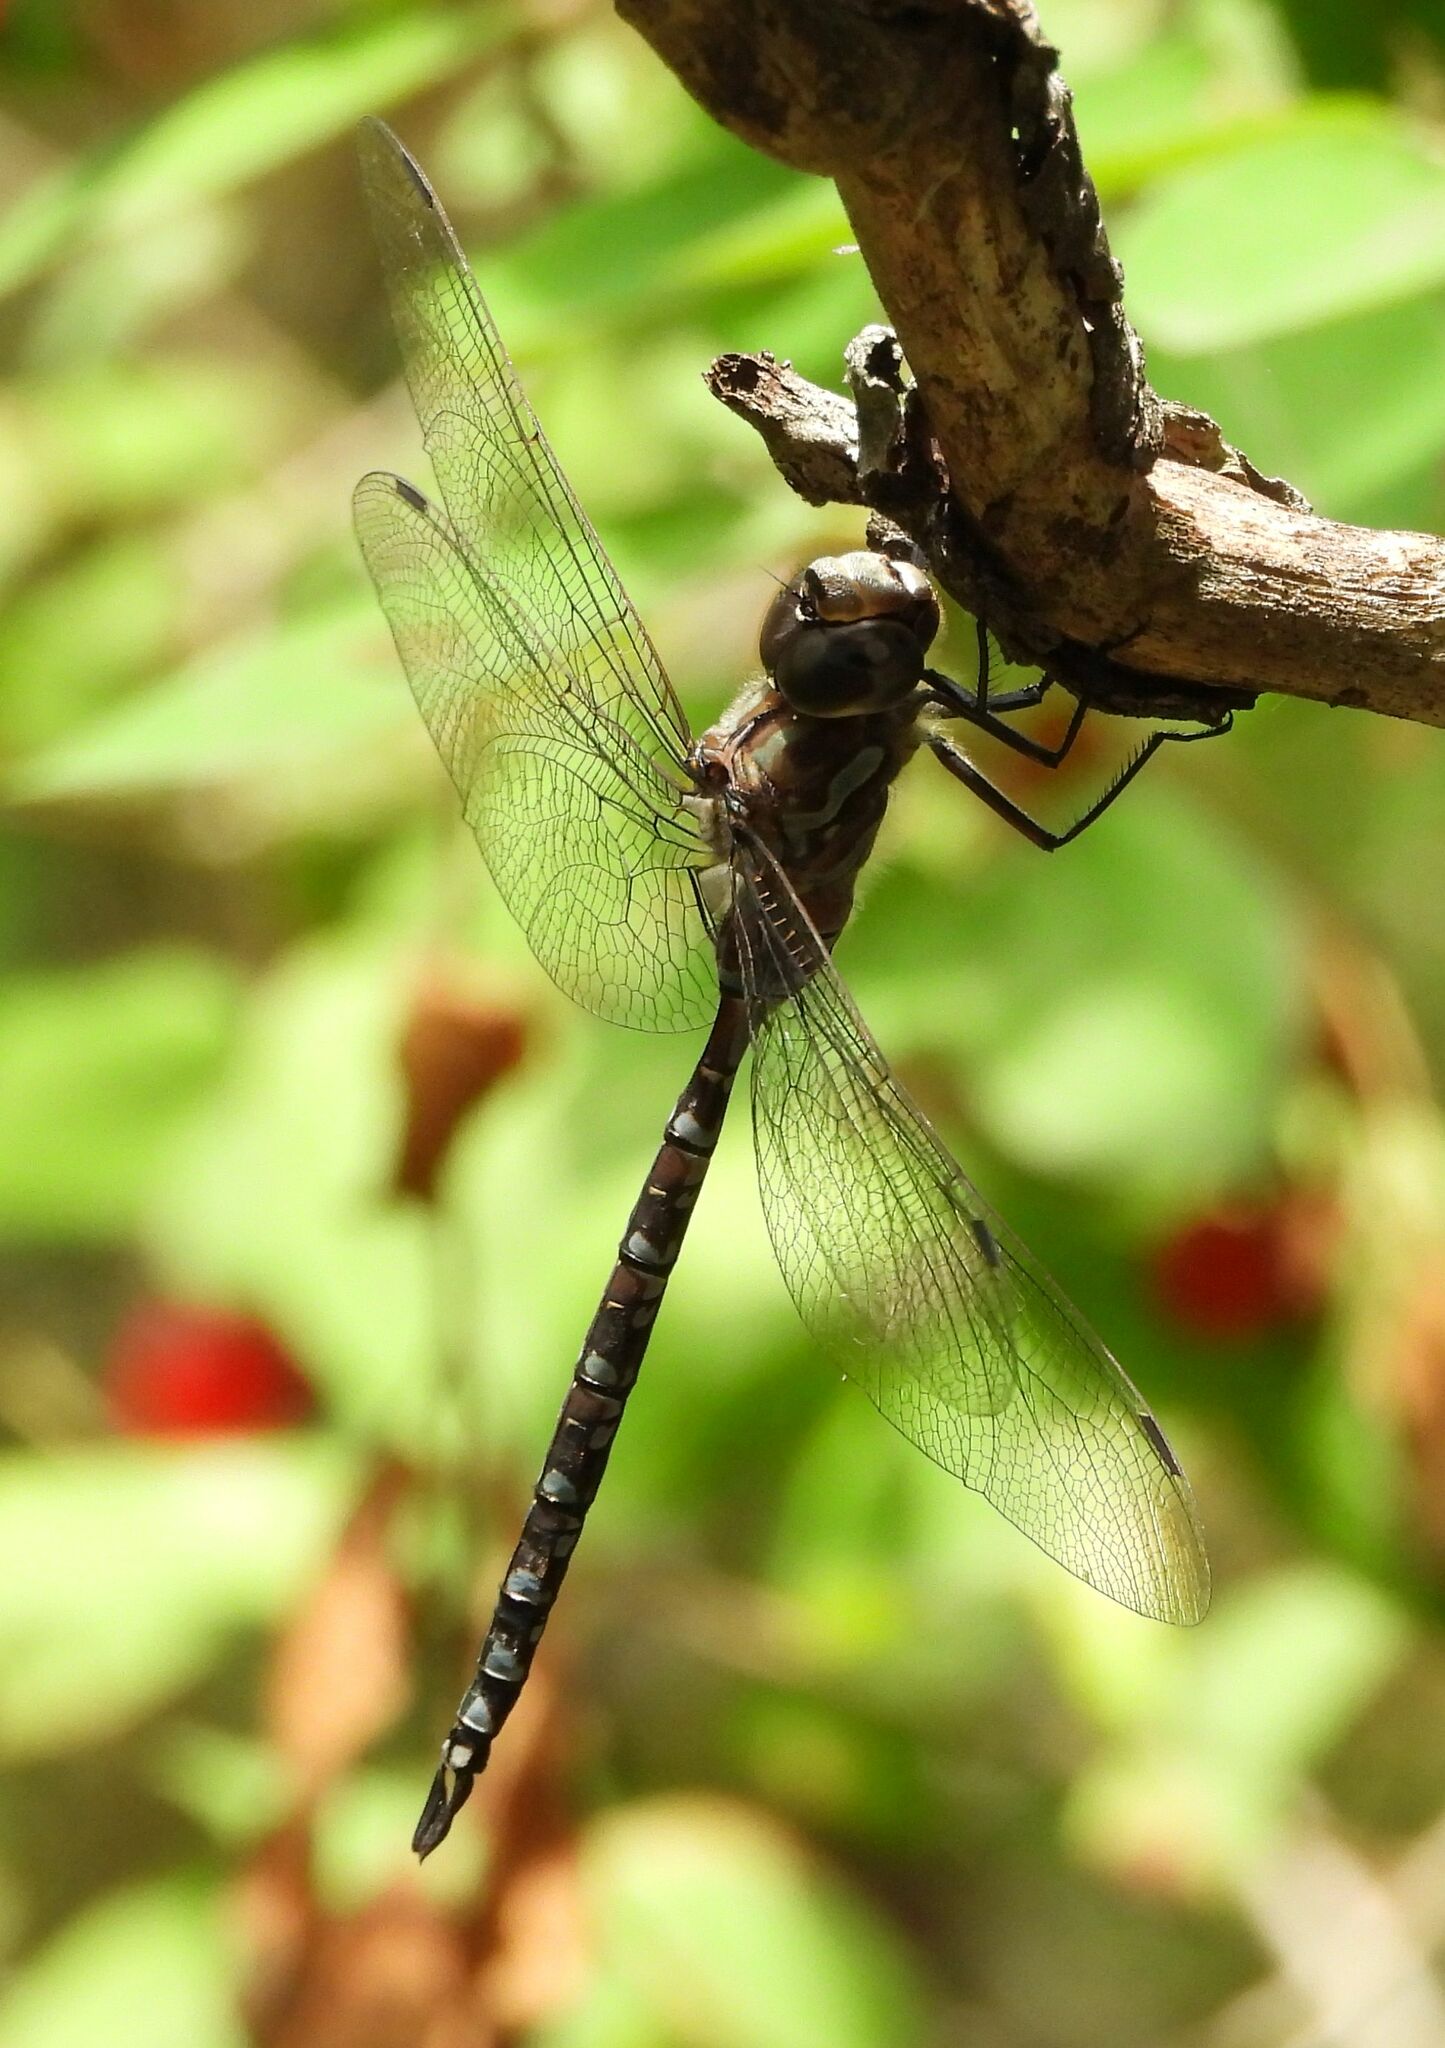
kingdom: Animalia
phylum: Arthropoda
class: Insecta
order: Odonata
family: Aeshnidae
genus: Aeshna
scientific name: Aeshna canadensis
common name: Canada darner
